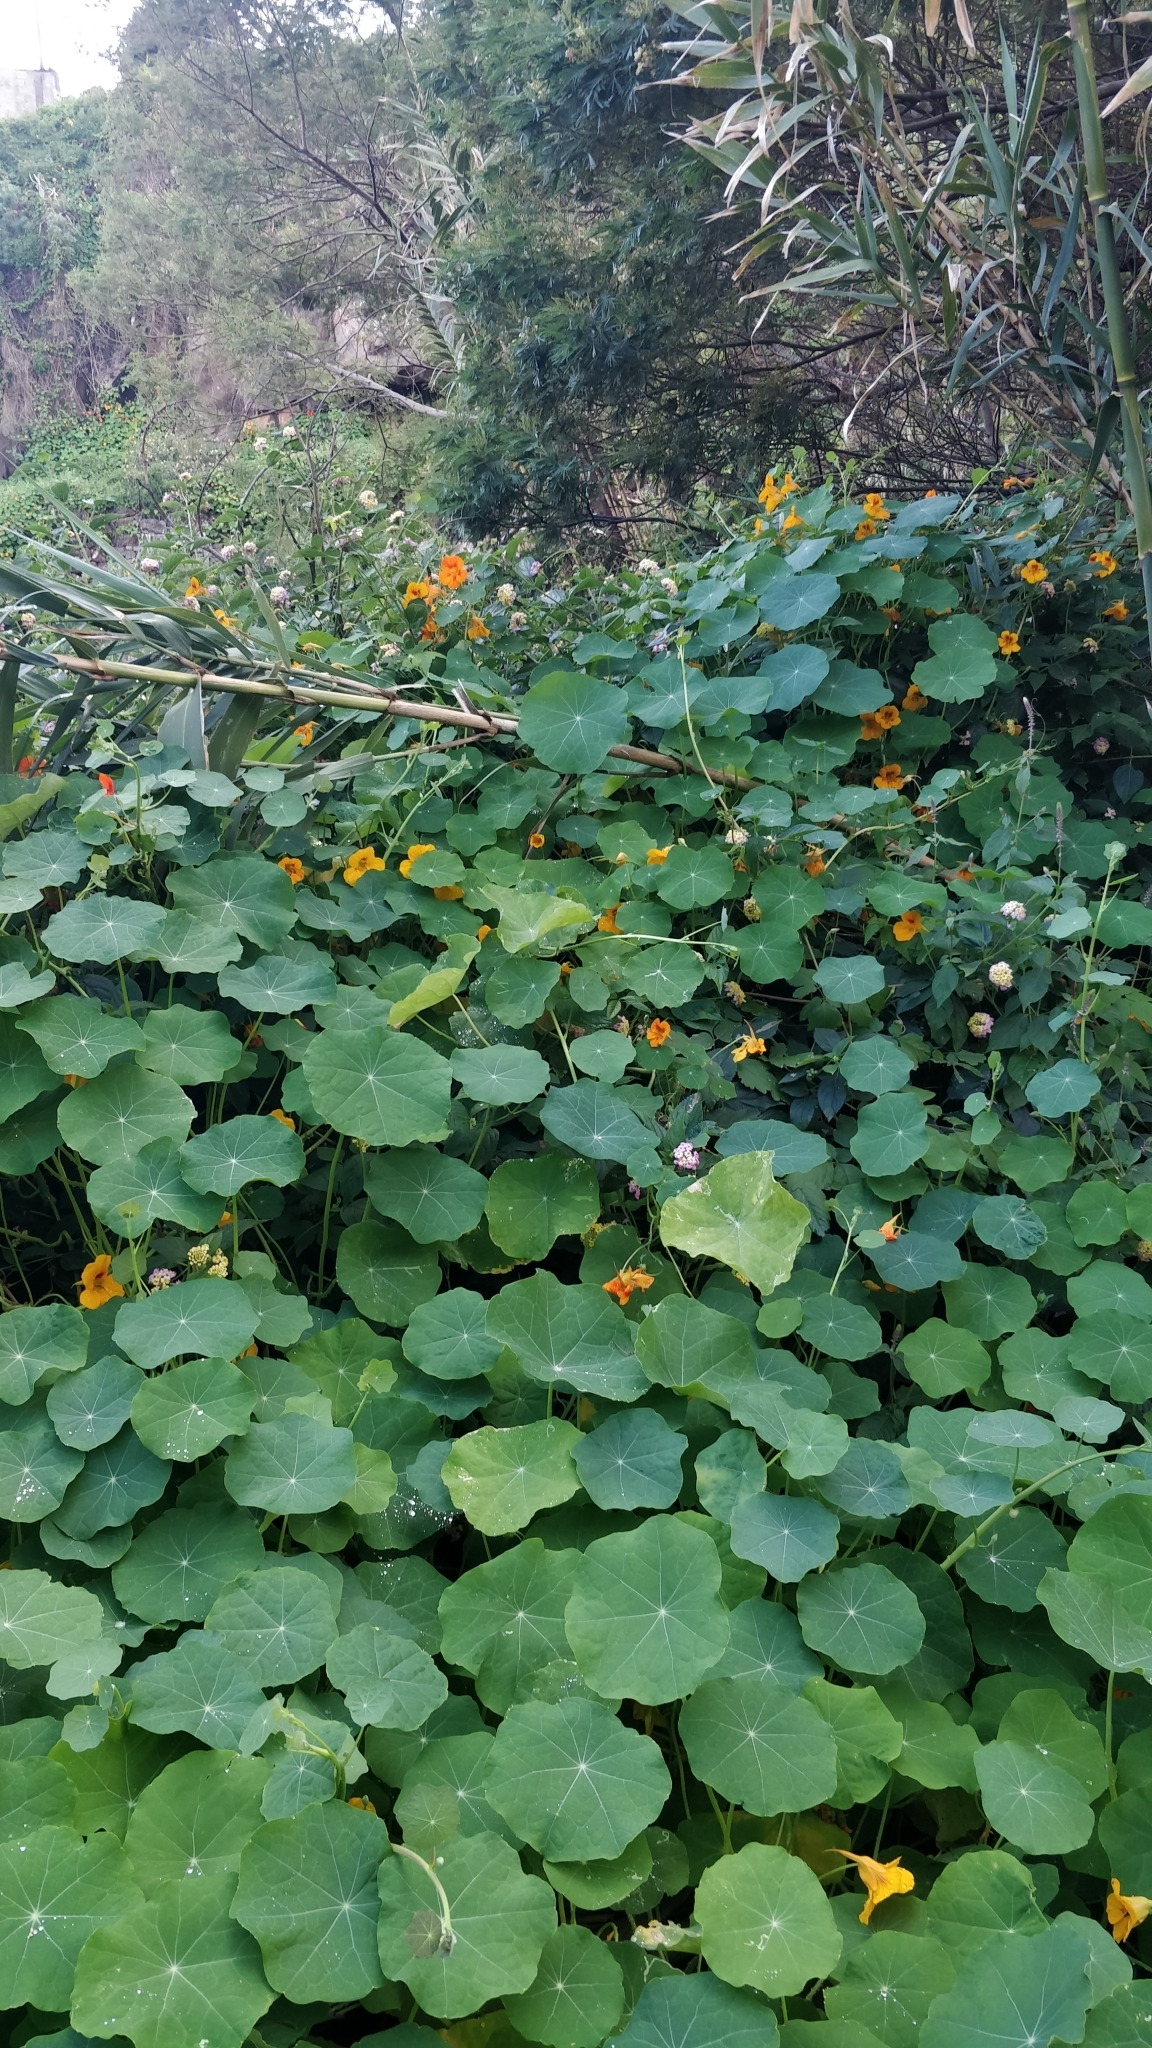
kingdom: Plantae
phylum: Tracheophyta
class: Magnoliopsida
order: Brassicales
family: Tropaeolaceae
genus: Tropaeolum
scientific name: Tropaeolum majus
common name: Nasturtium
